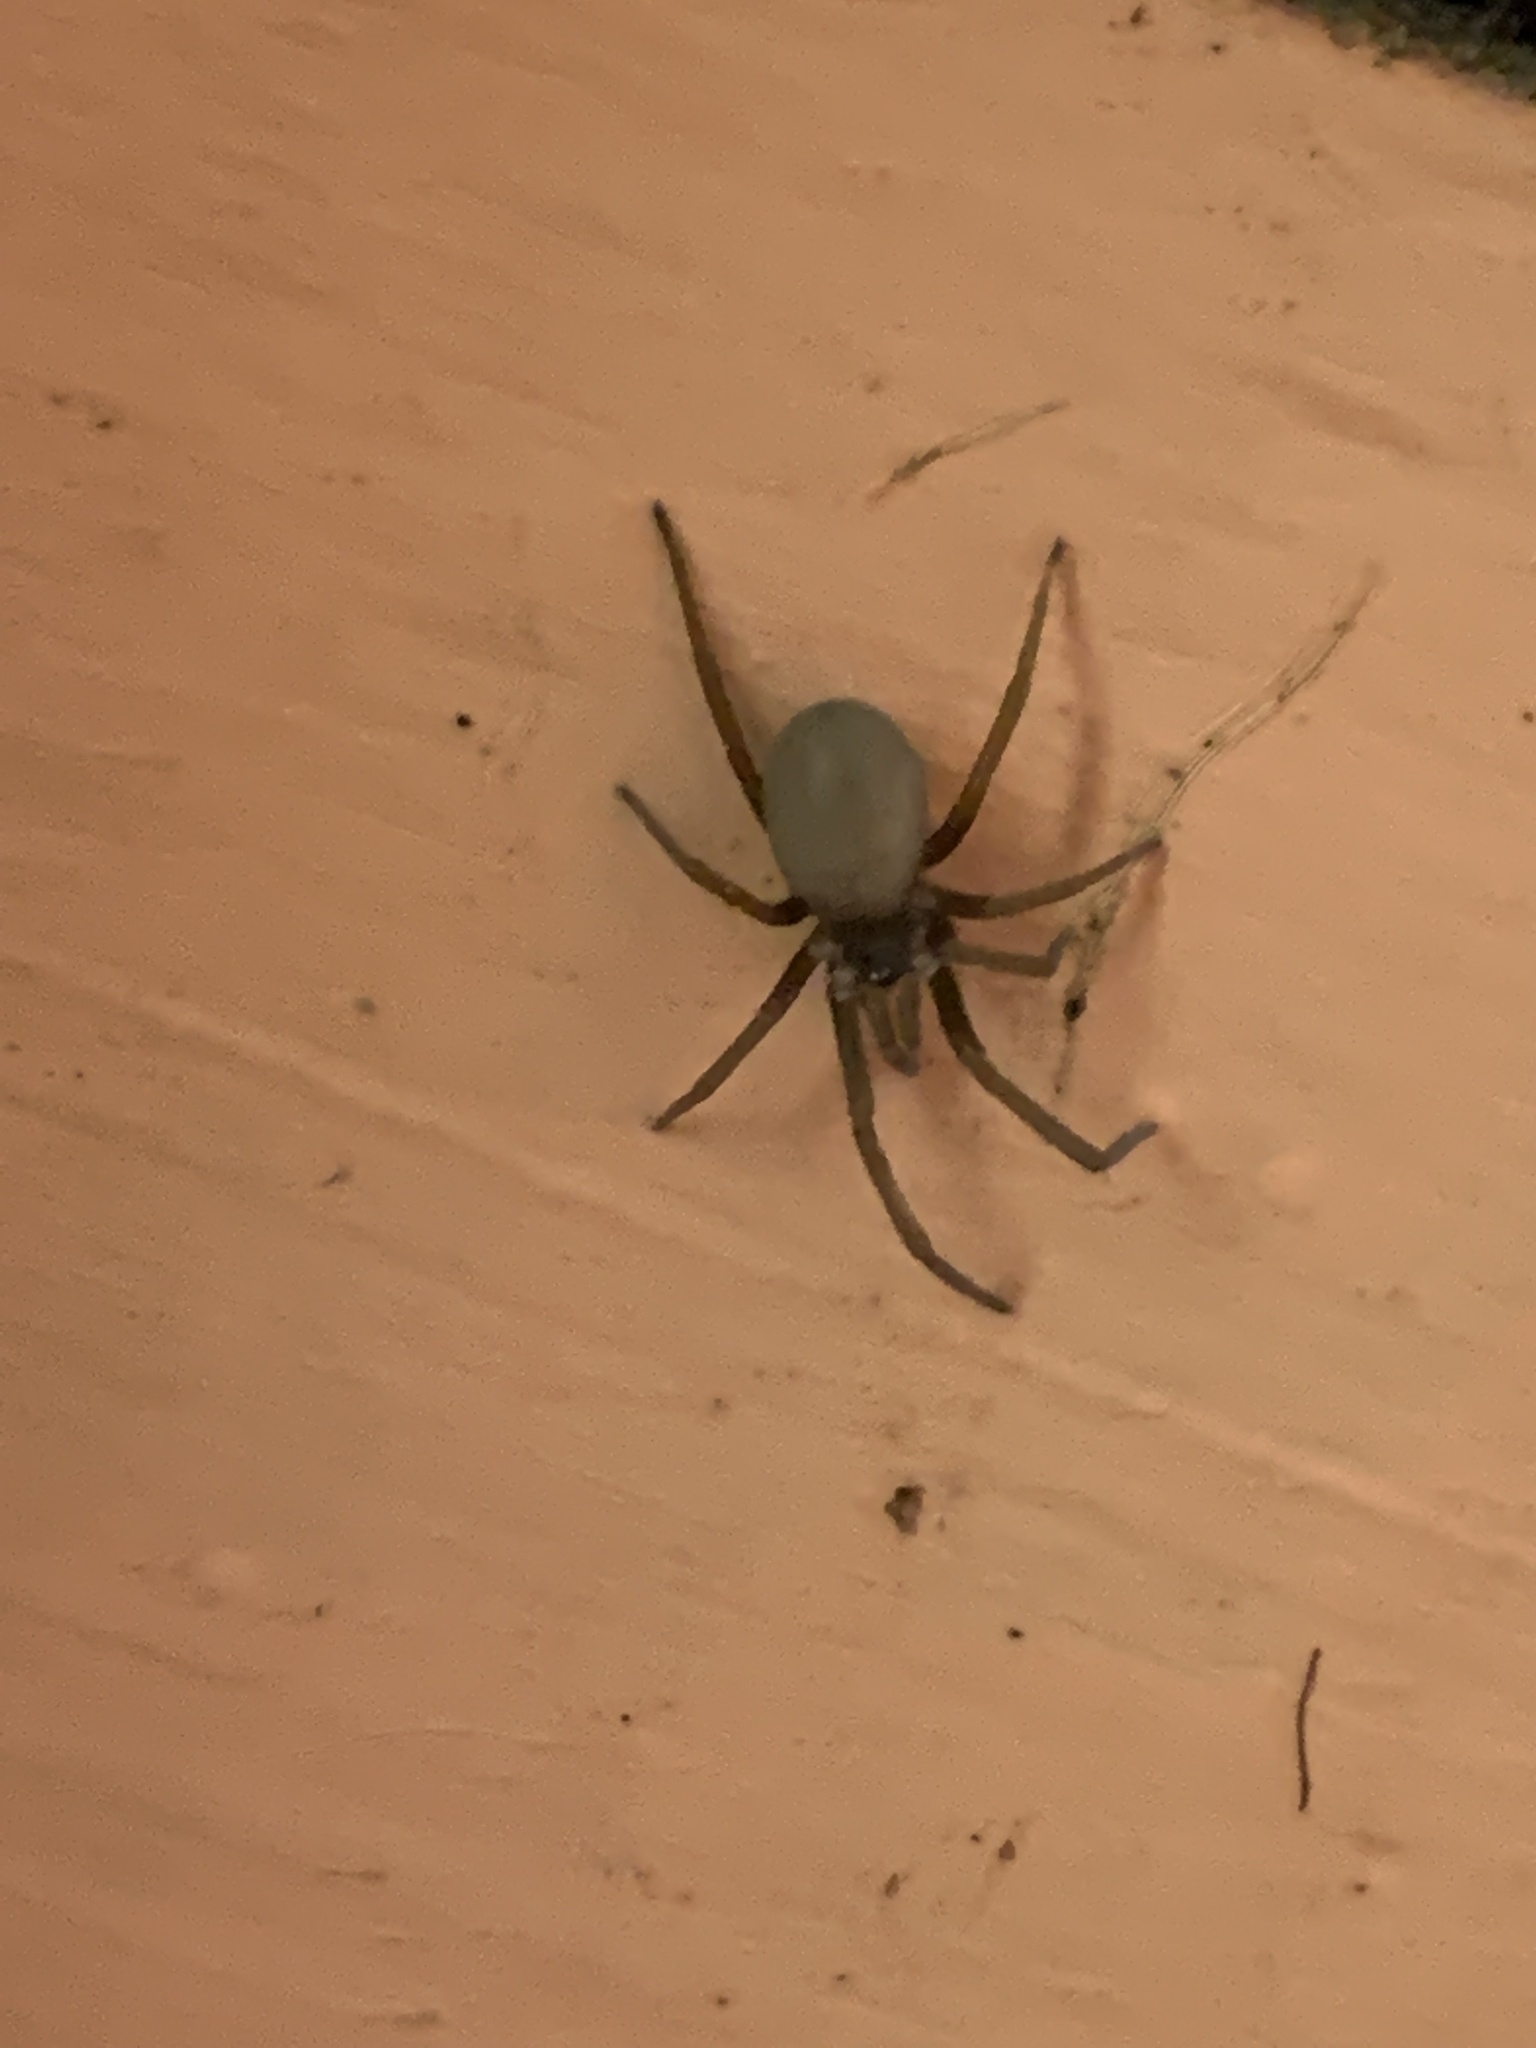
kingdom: Animalia
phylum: Arthropoda
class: Arachnida
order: Araneae
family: Filistatidae
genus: Kukulcania
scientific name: Kukulcania hibernalis
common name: Crevice weaver
